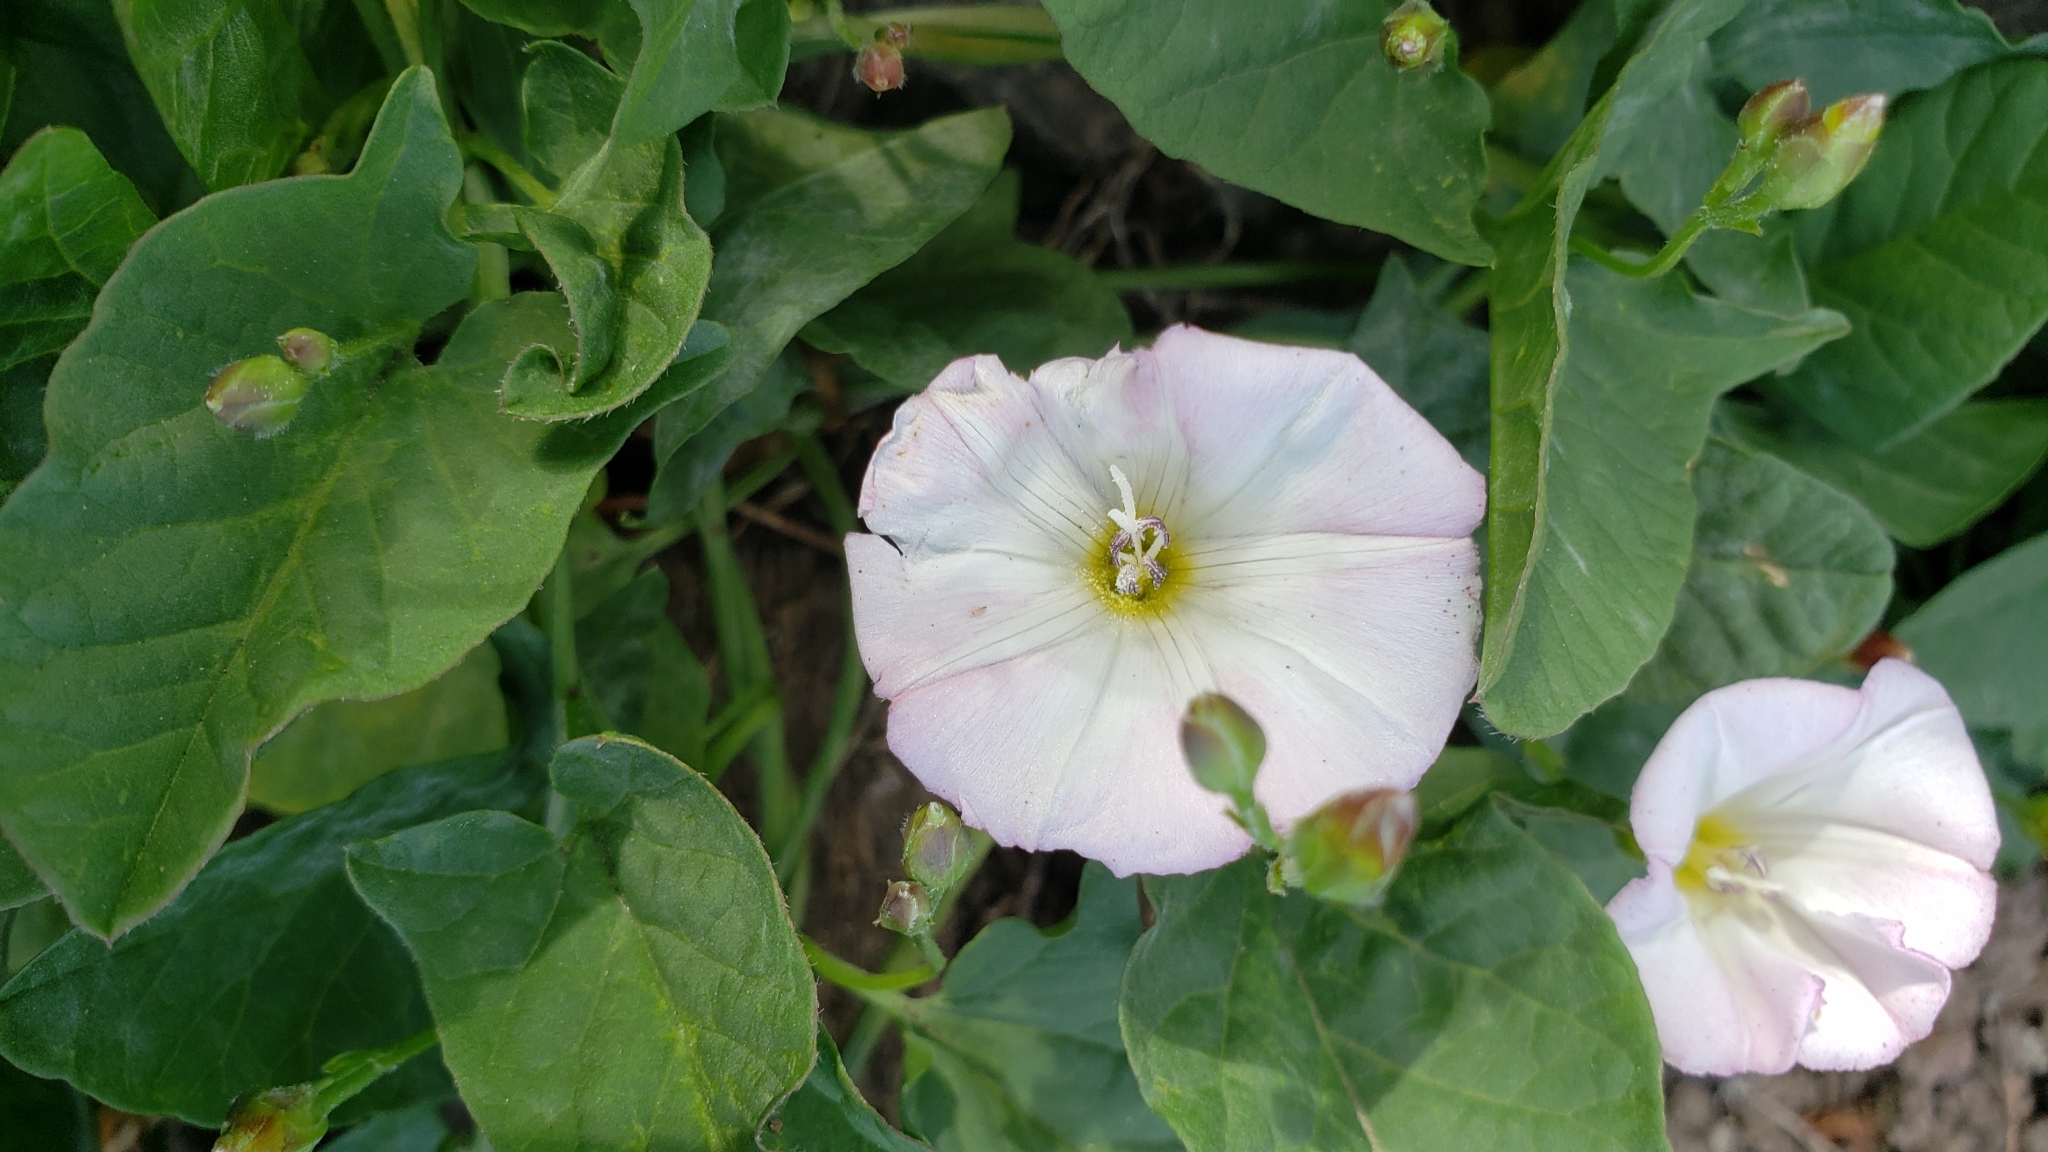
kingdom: Plantae
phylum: Tracheophyta
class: Magnoliopsida
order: Solanales
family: Convolvulaceae
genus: Convolvulus
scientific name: Convolvulus arvensis
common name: Field bindweed
